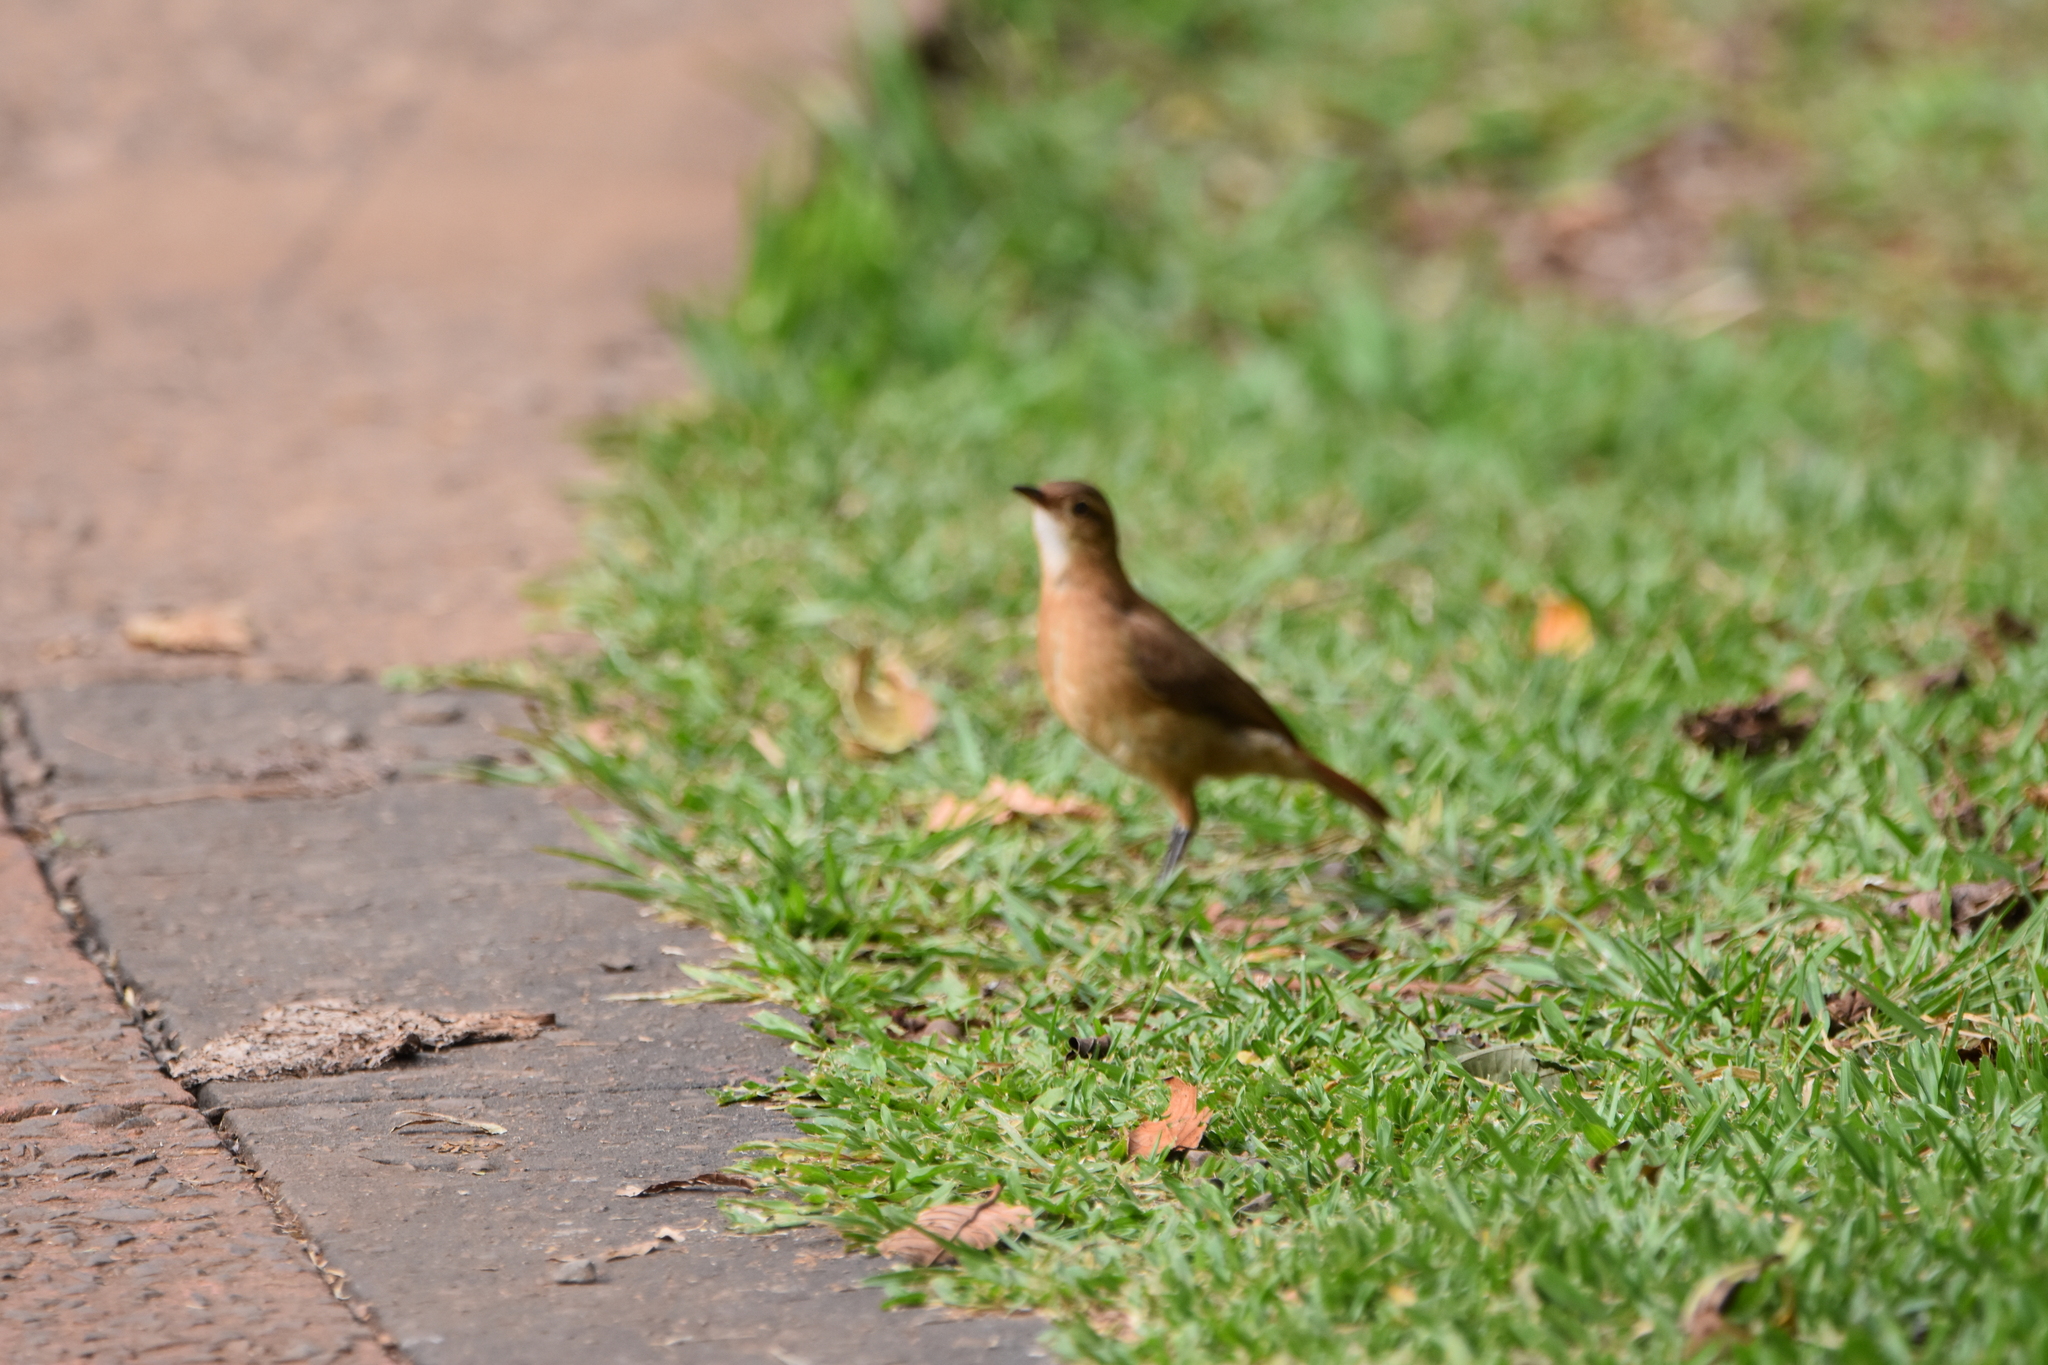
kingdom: Animalia
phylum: Chordata
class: Aves
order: Passeriformes
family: Furnariidae
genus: Furnarius
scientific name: Furnarius rufus
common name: Rufous hornero
